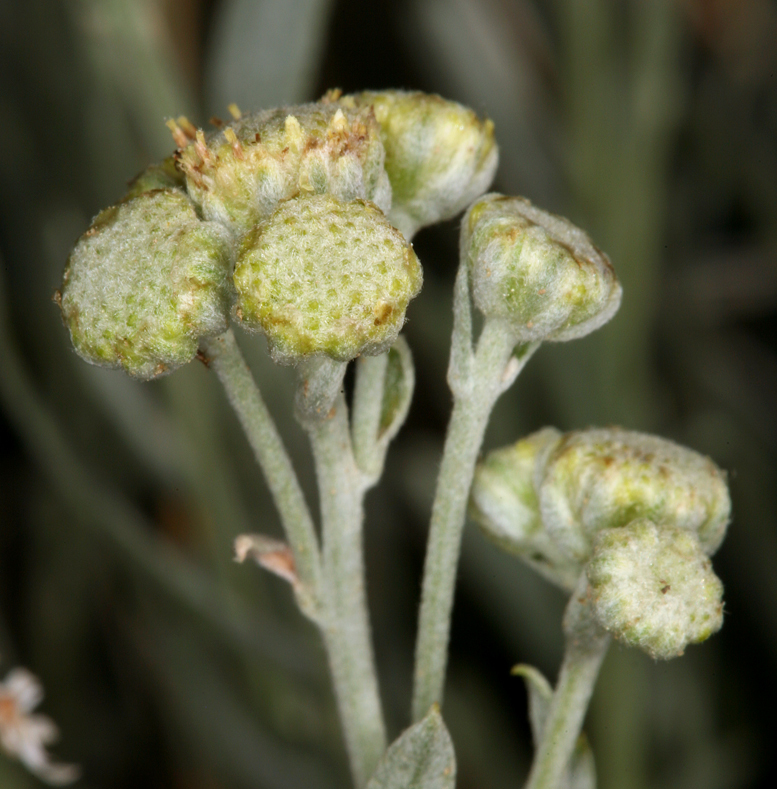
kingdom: Plantae
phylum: Tracheophyta
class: Magnoliopsida
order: Asterales
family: Asteraceae
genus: Artemisia
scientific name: Artemisia albicans
